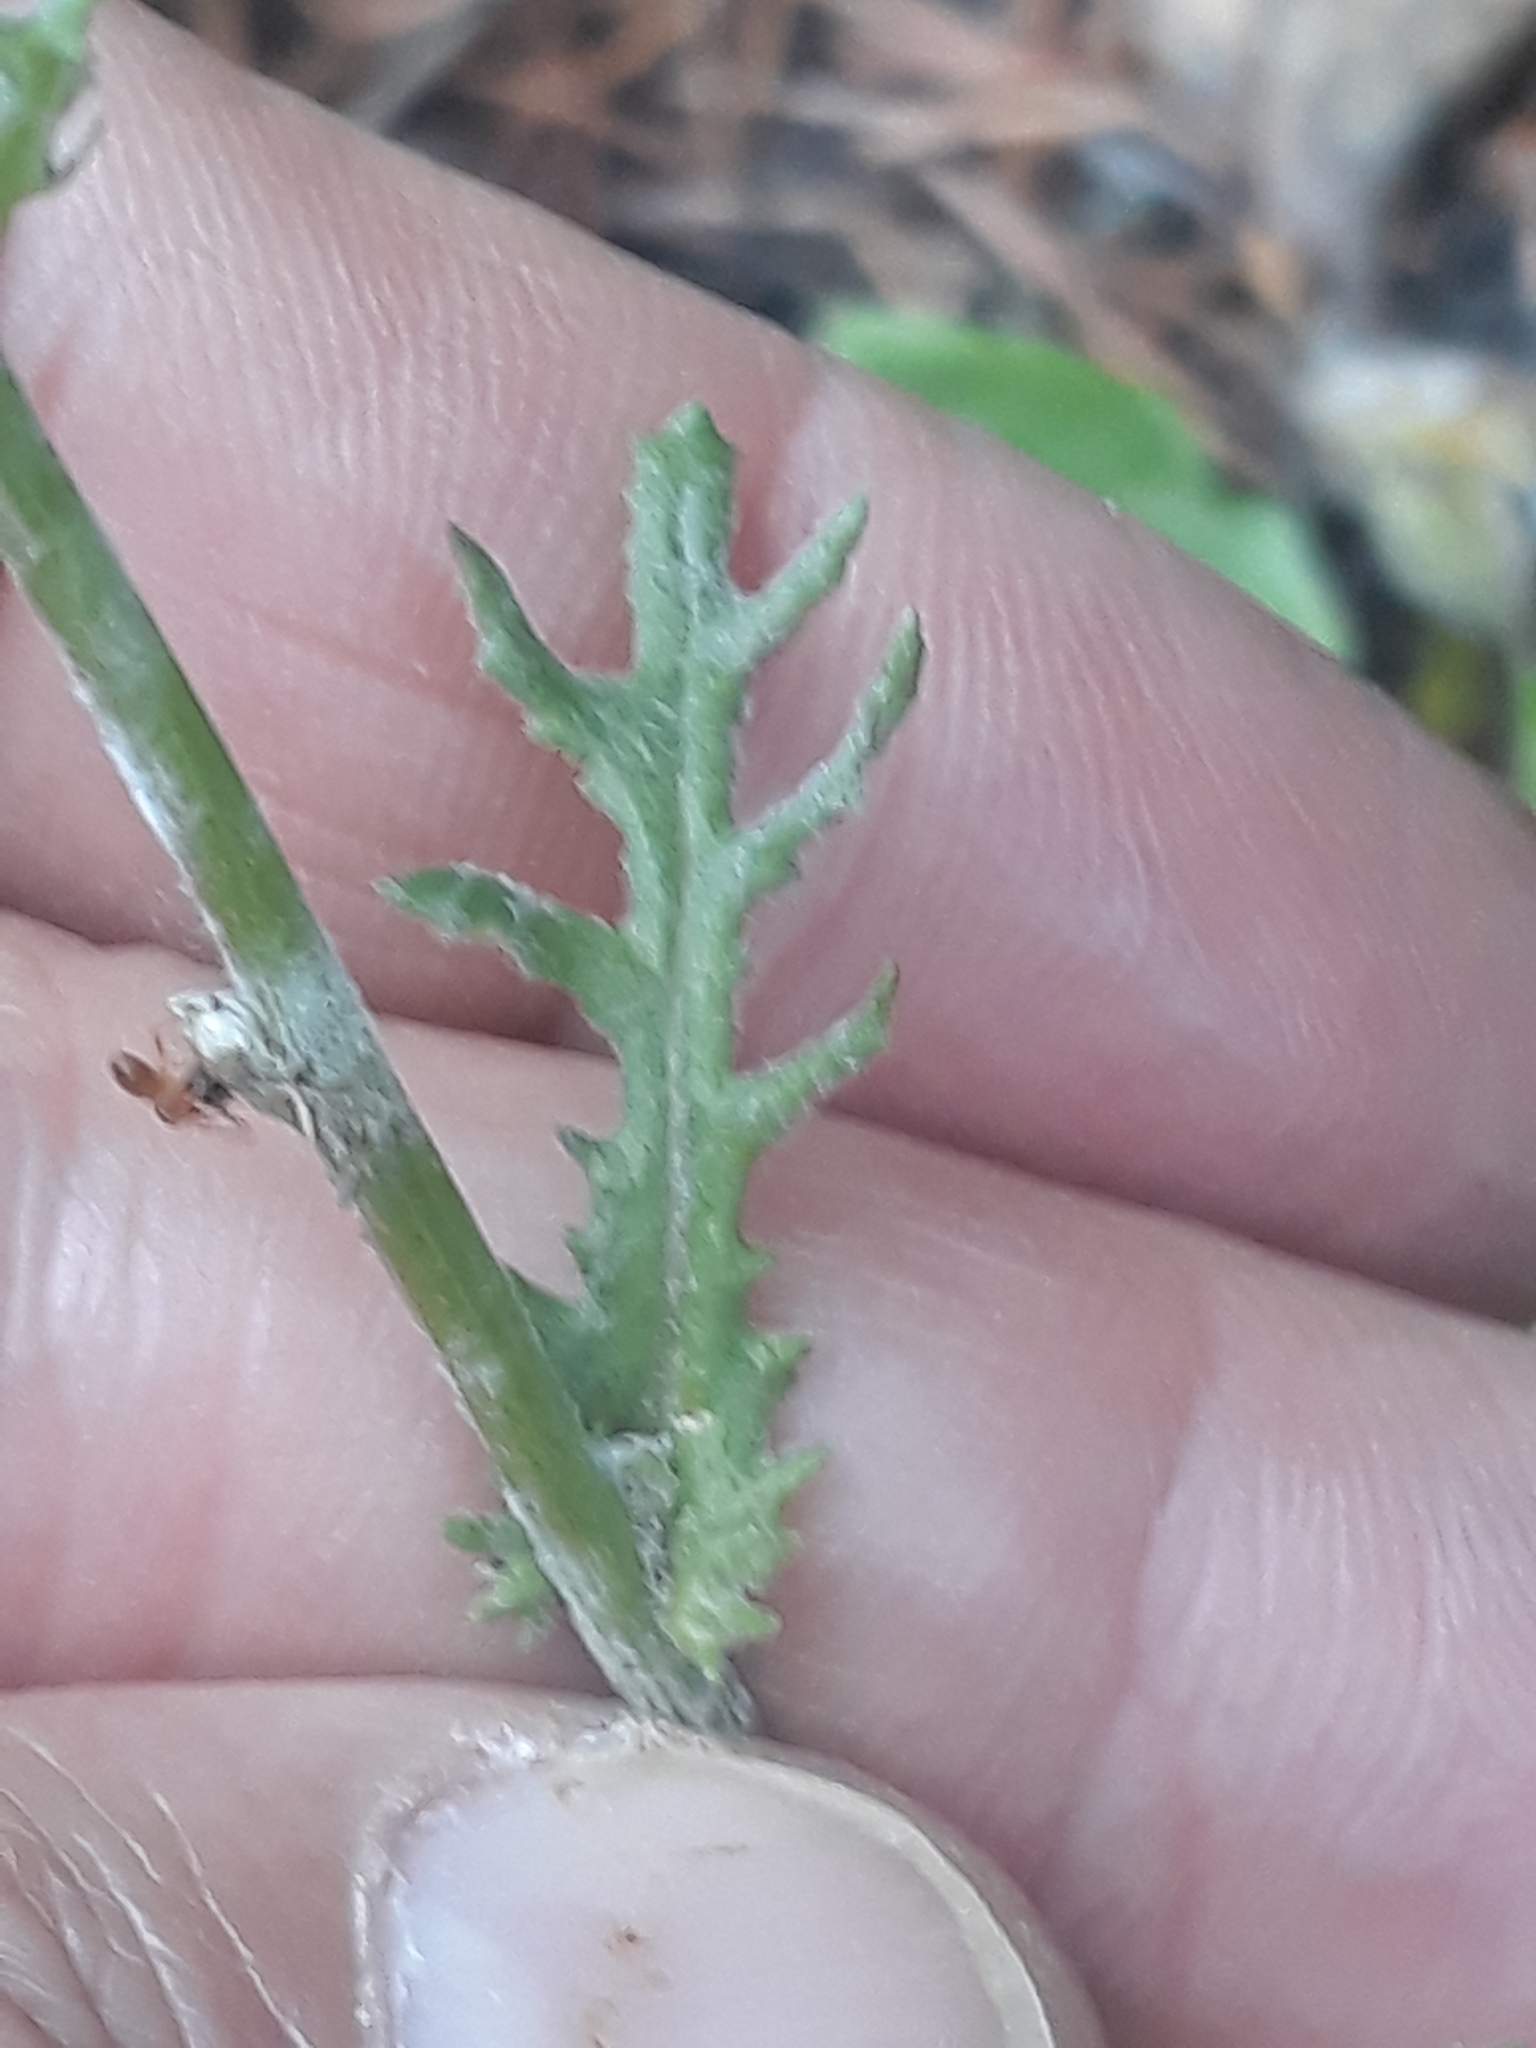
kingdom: Plantae
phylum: Tracheophyta
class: Magnoliopsida
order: Asterales
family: Asteraceae
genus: Senecio
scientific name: Senecio vulgaris
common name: Old-man-in-the-spring
